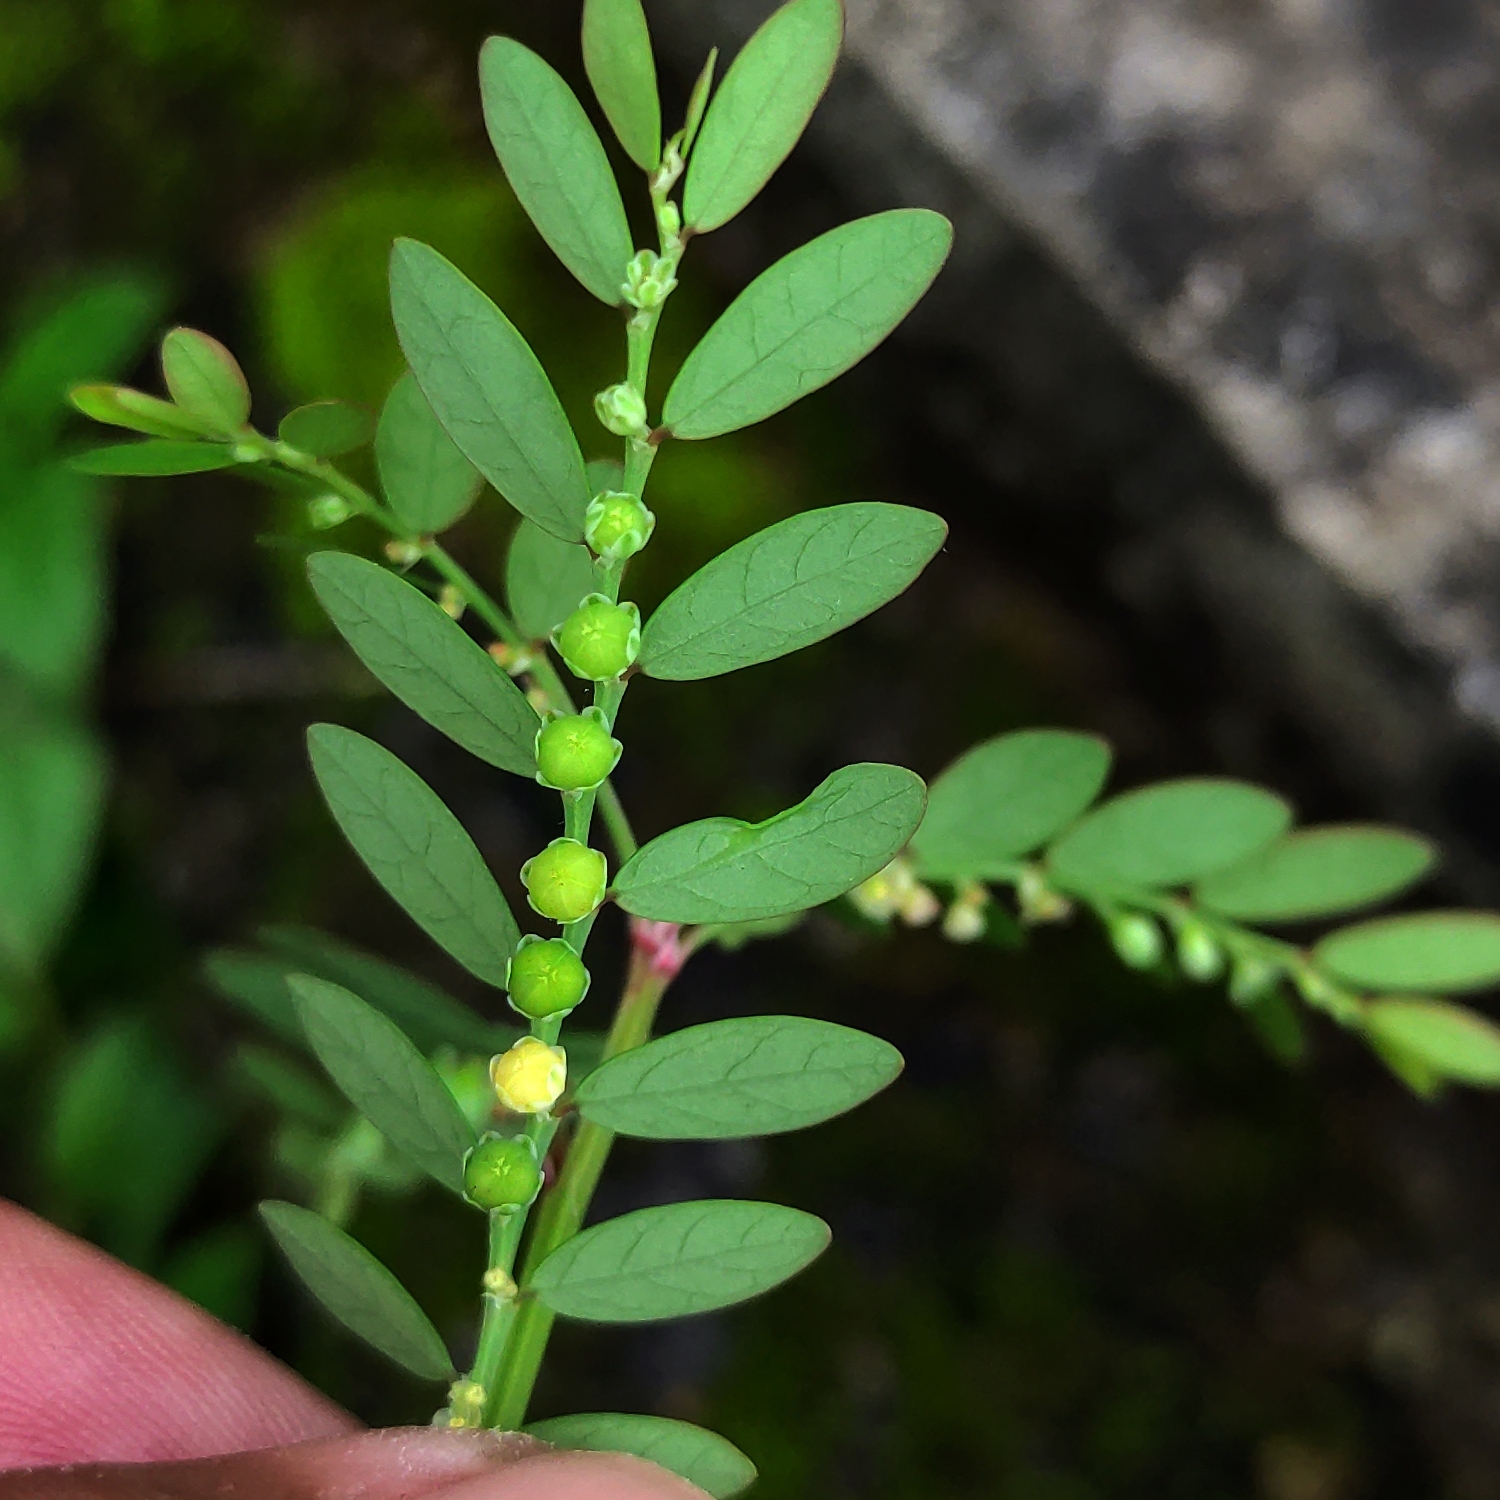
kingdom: Plantae
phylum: Tracheophyta
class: Magnoliopsida
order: Malpighiales
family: Phyllanthaceae
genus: Phyllanthus
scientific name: Phyllanthus debilis
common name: Niruri
